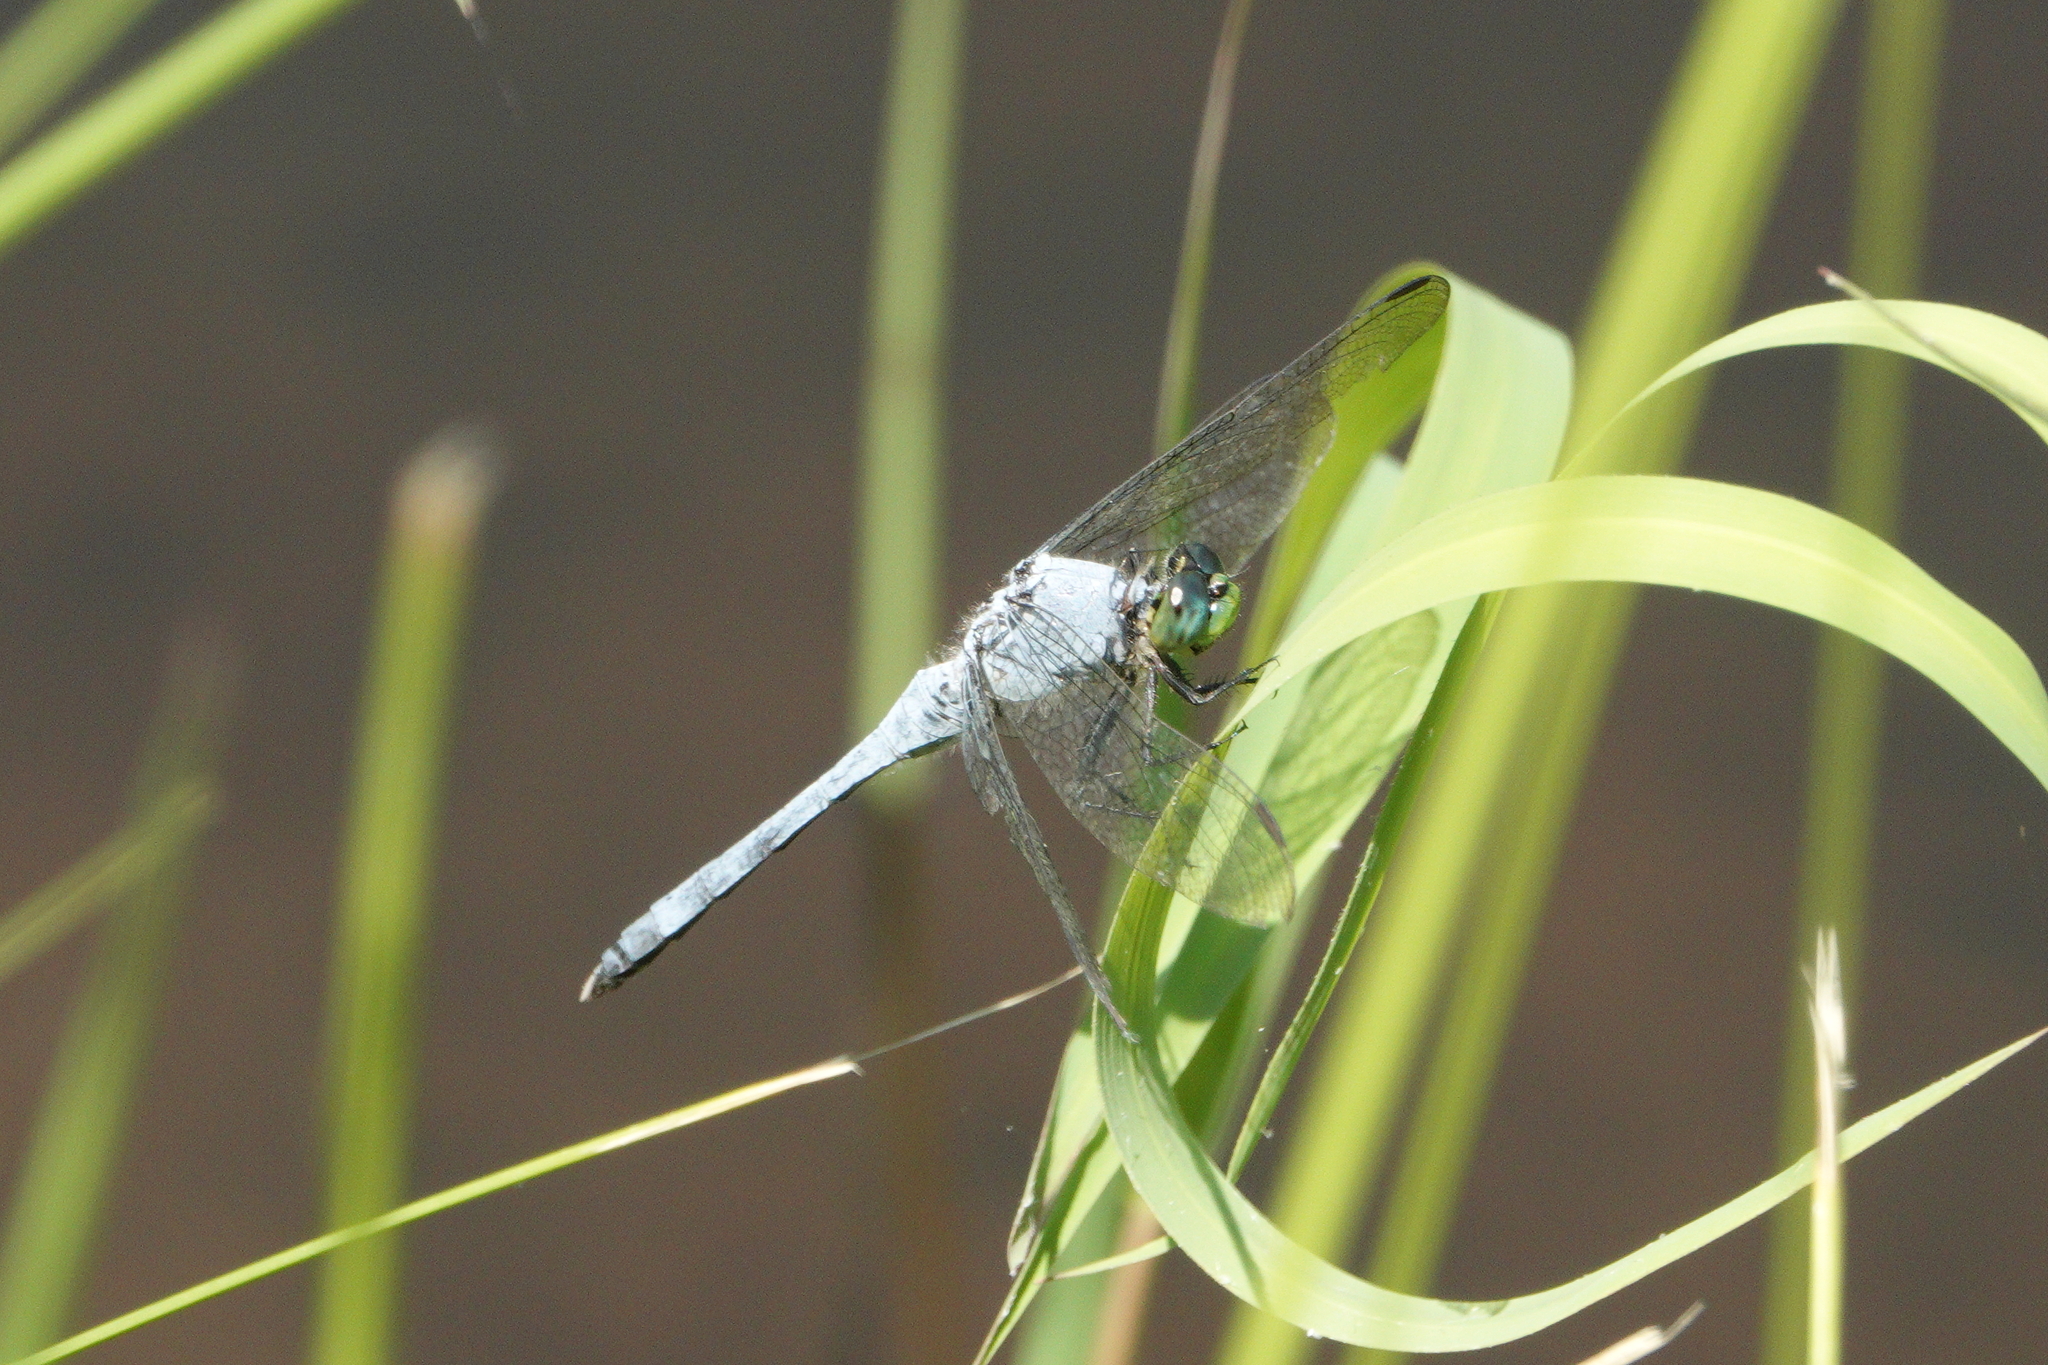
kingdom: Animalia
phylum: Arthropoda
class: Insecta
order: Odonata
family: Libellulidae
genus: Erythemis
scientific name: Erythemis simplicicollis
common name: Eastern pondhawk
